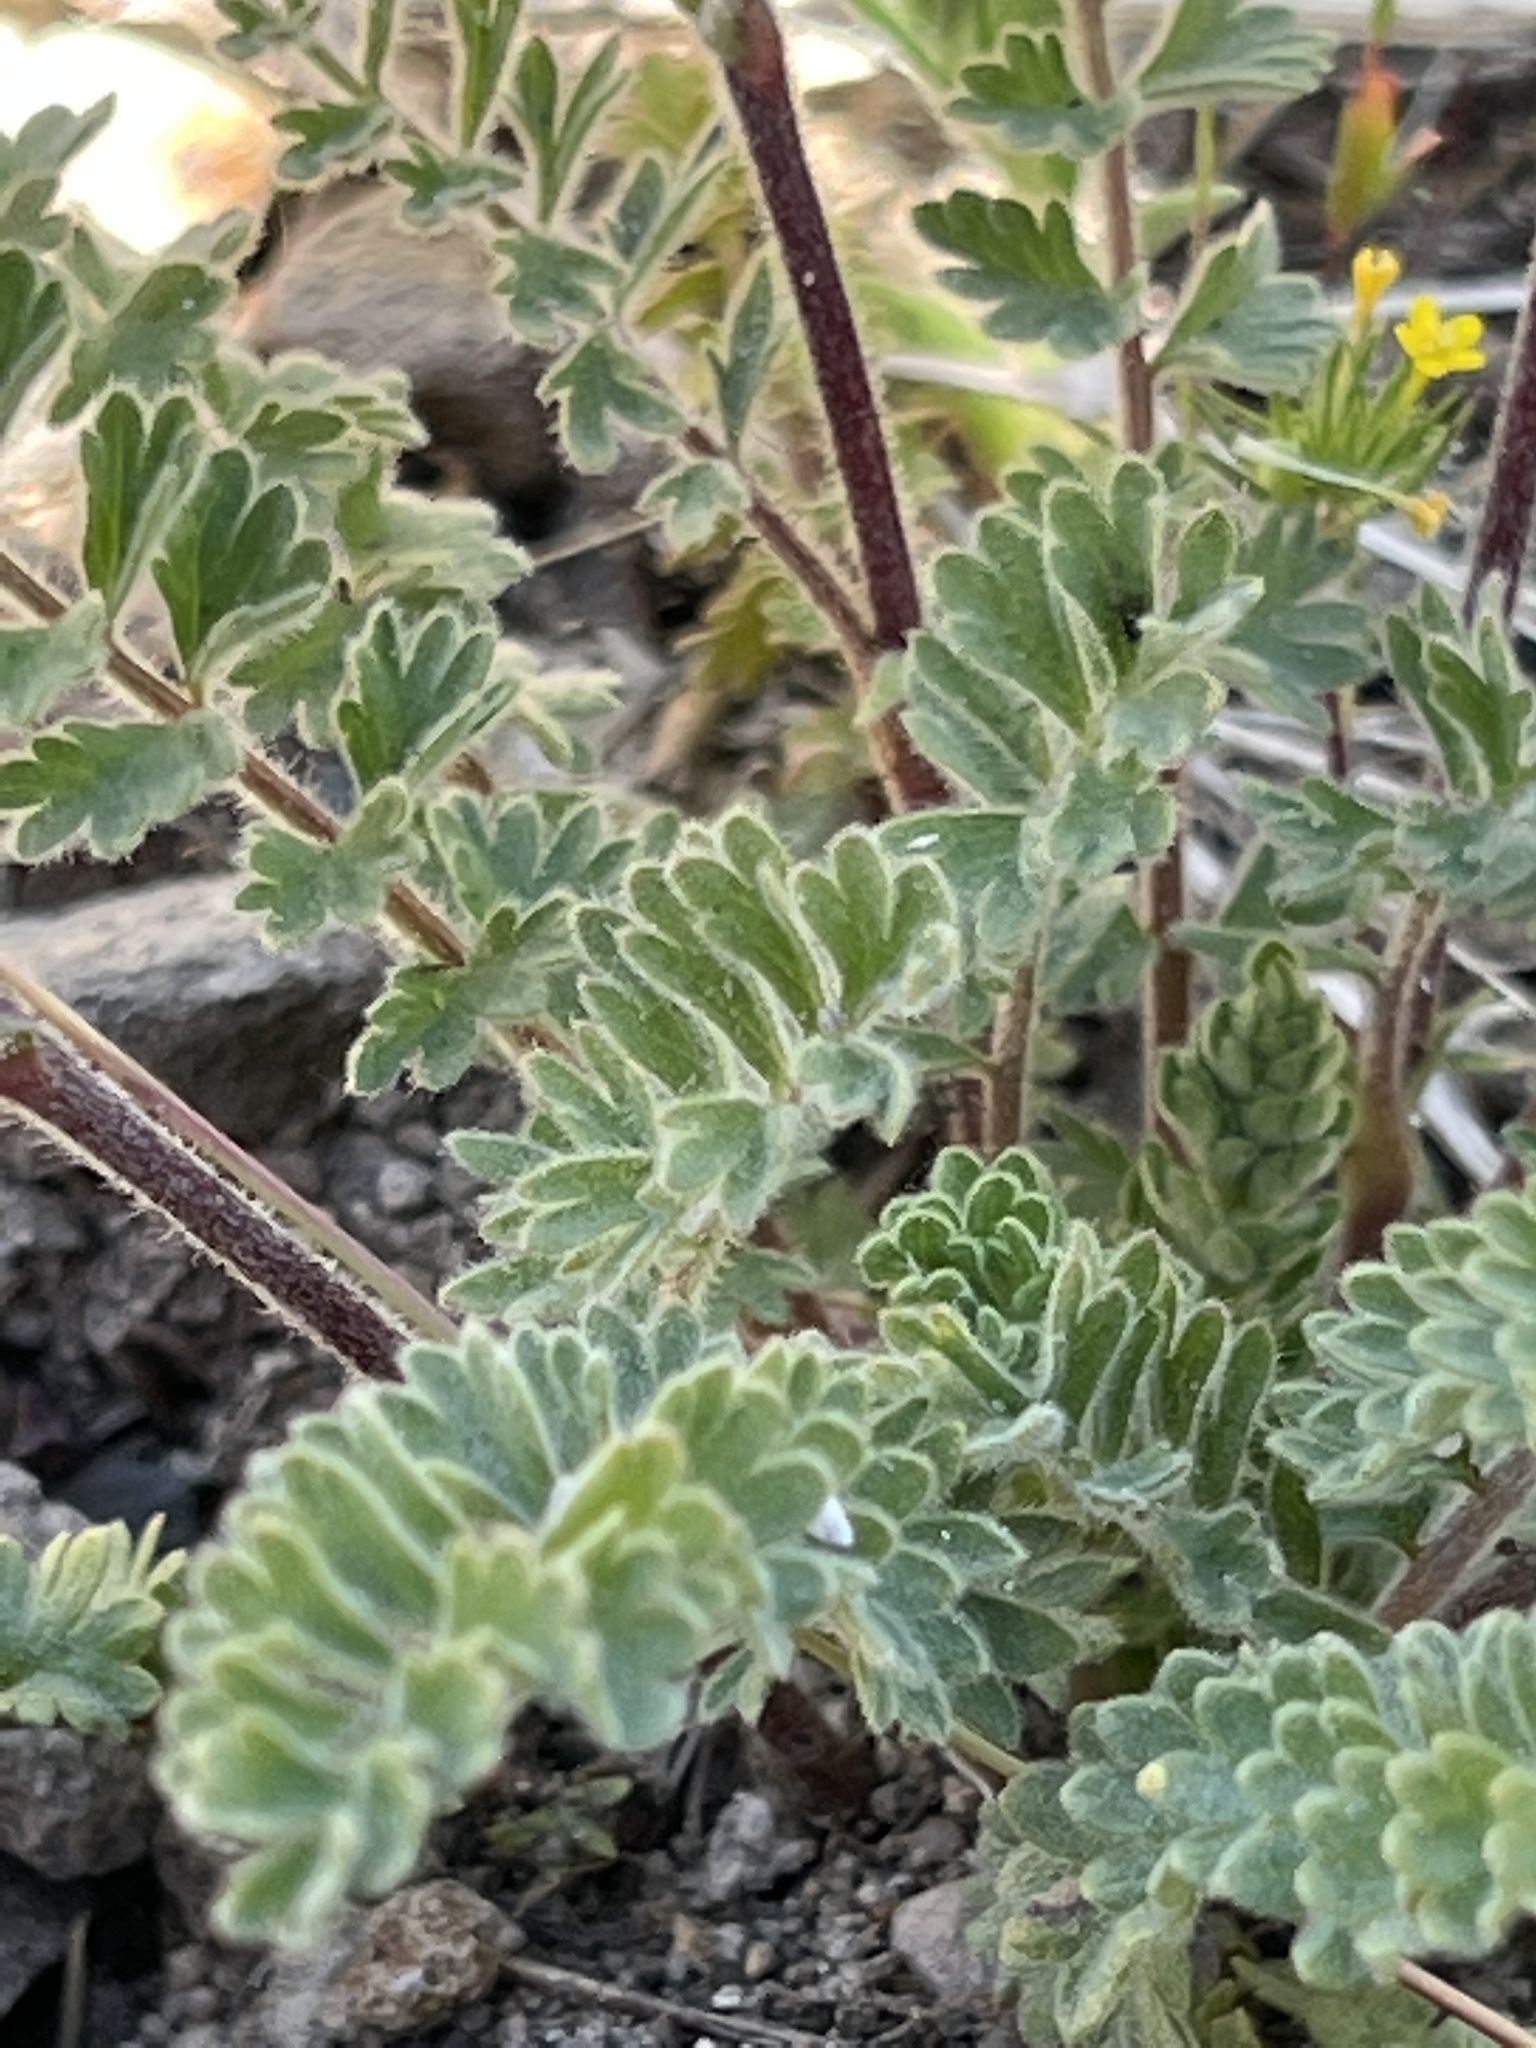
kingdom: Plantae
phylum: Tracheophyta
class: Magnoliopsida
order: Rosales
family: Rosaceae
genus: Potentilla
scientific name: Potentilla douglasii
